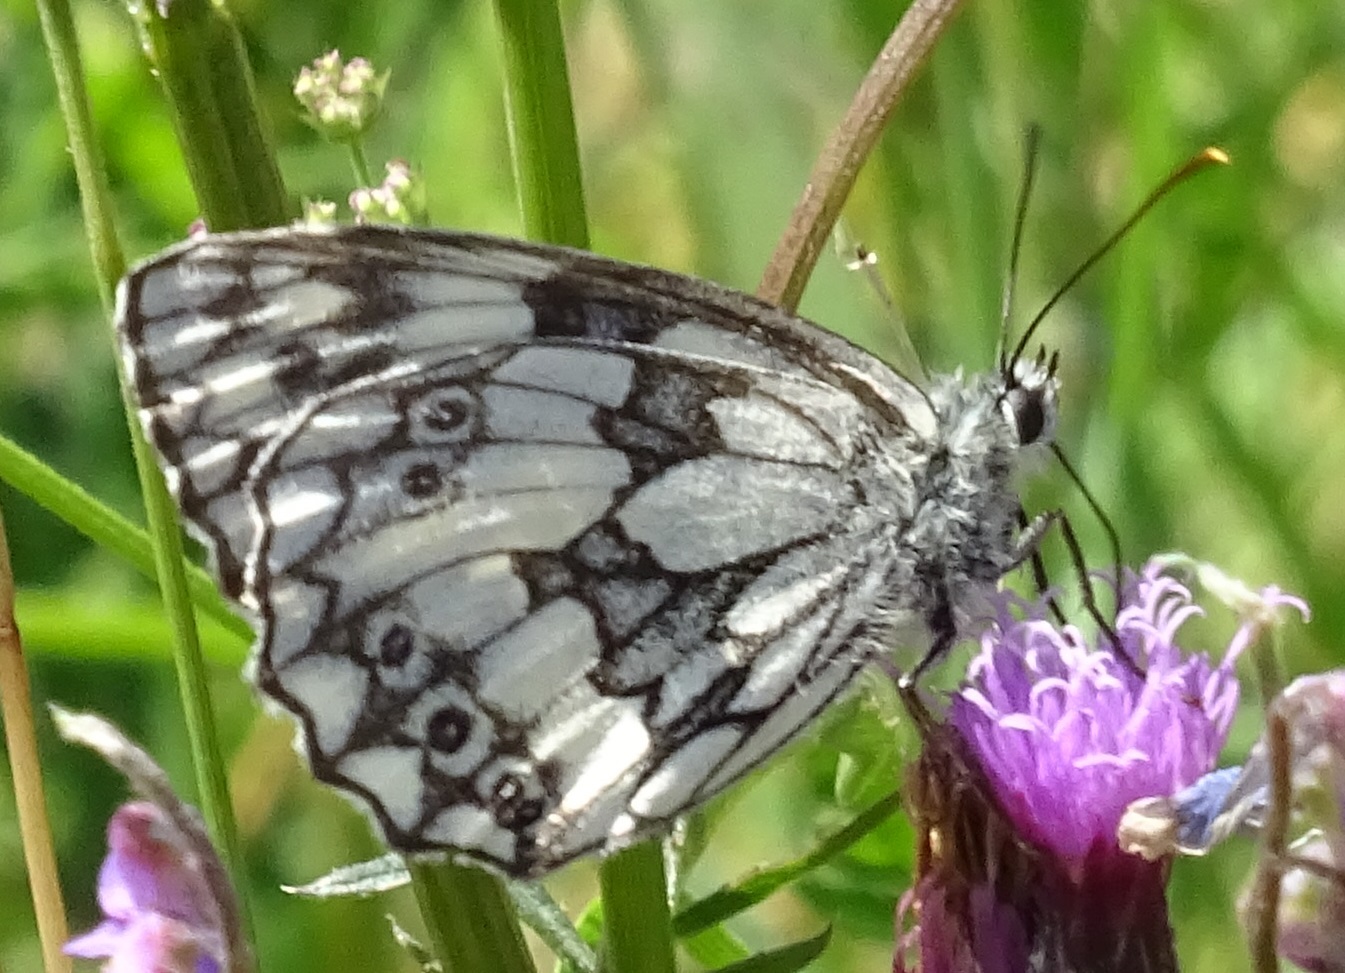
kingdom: Animalia
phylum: Arthropoda
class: Insecta
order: Lepidoptera
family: Nymphalidae
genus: Melanargia
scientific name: Melanargia galathea
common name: Marbled white
